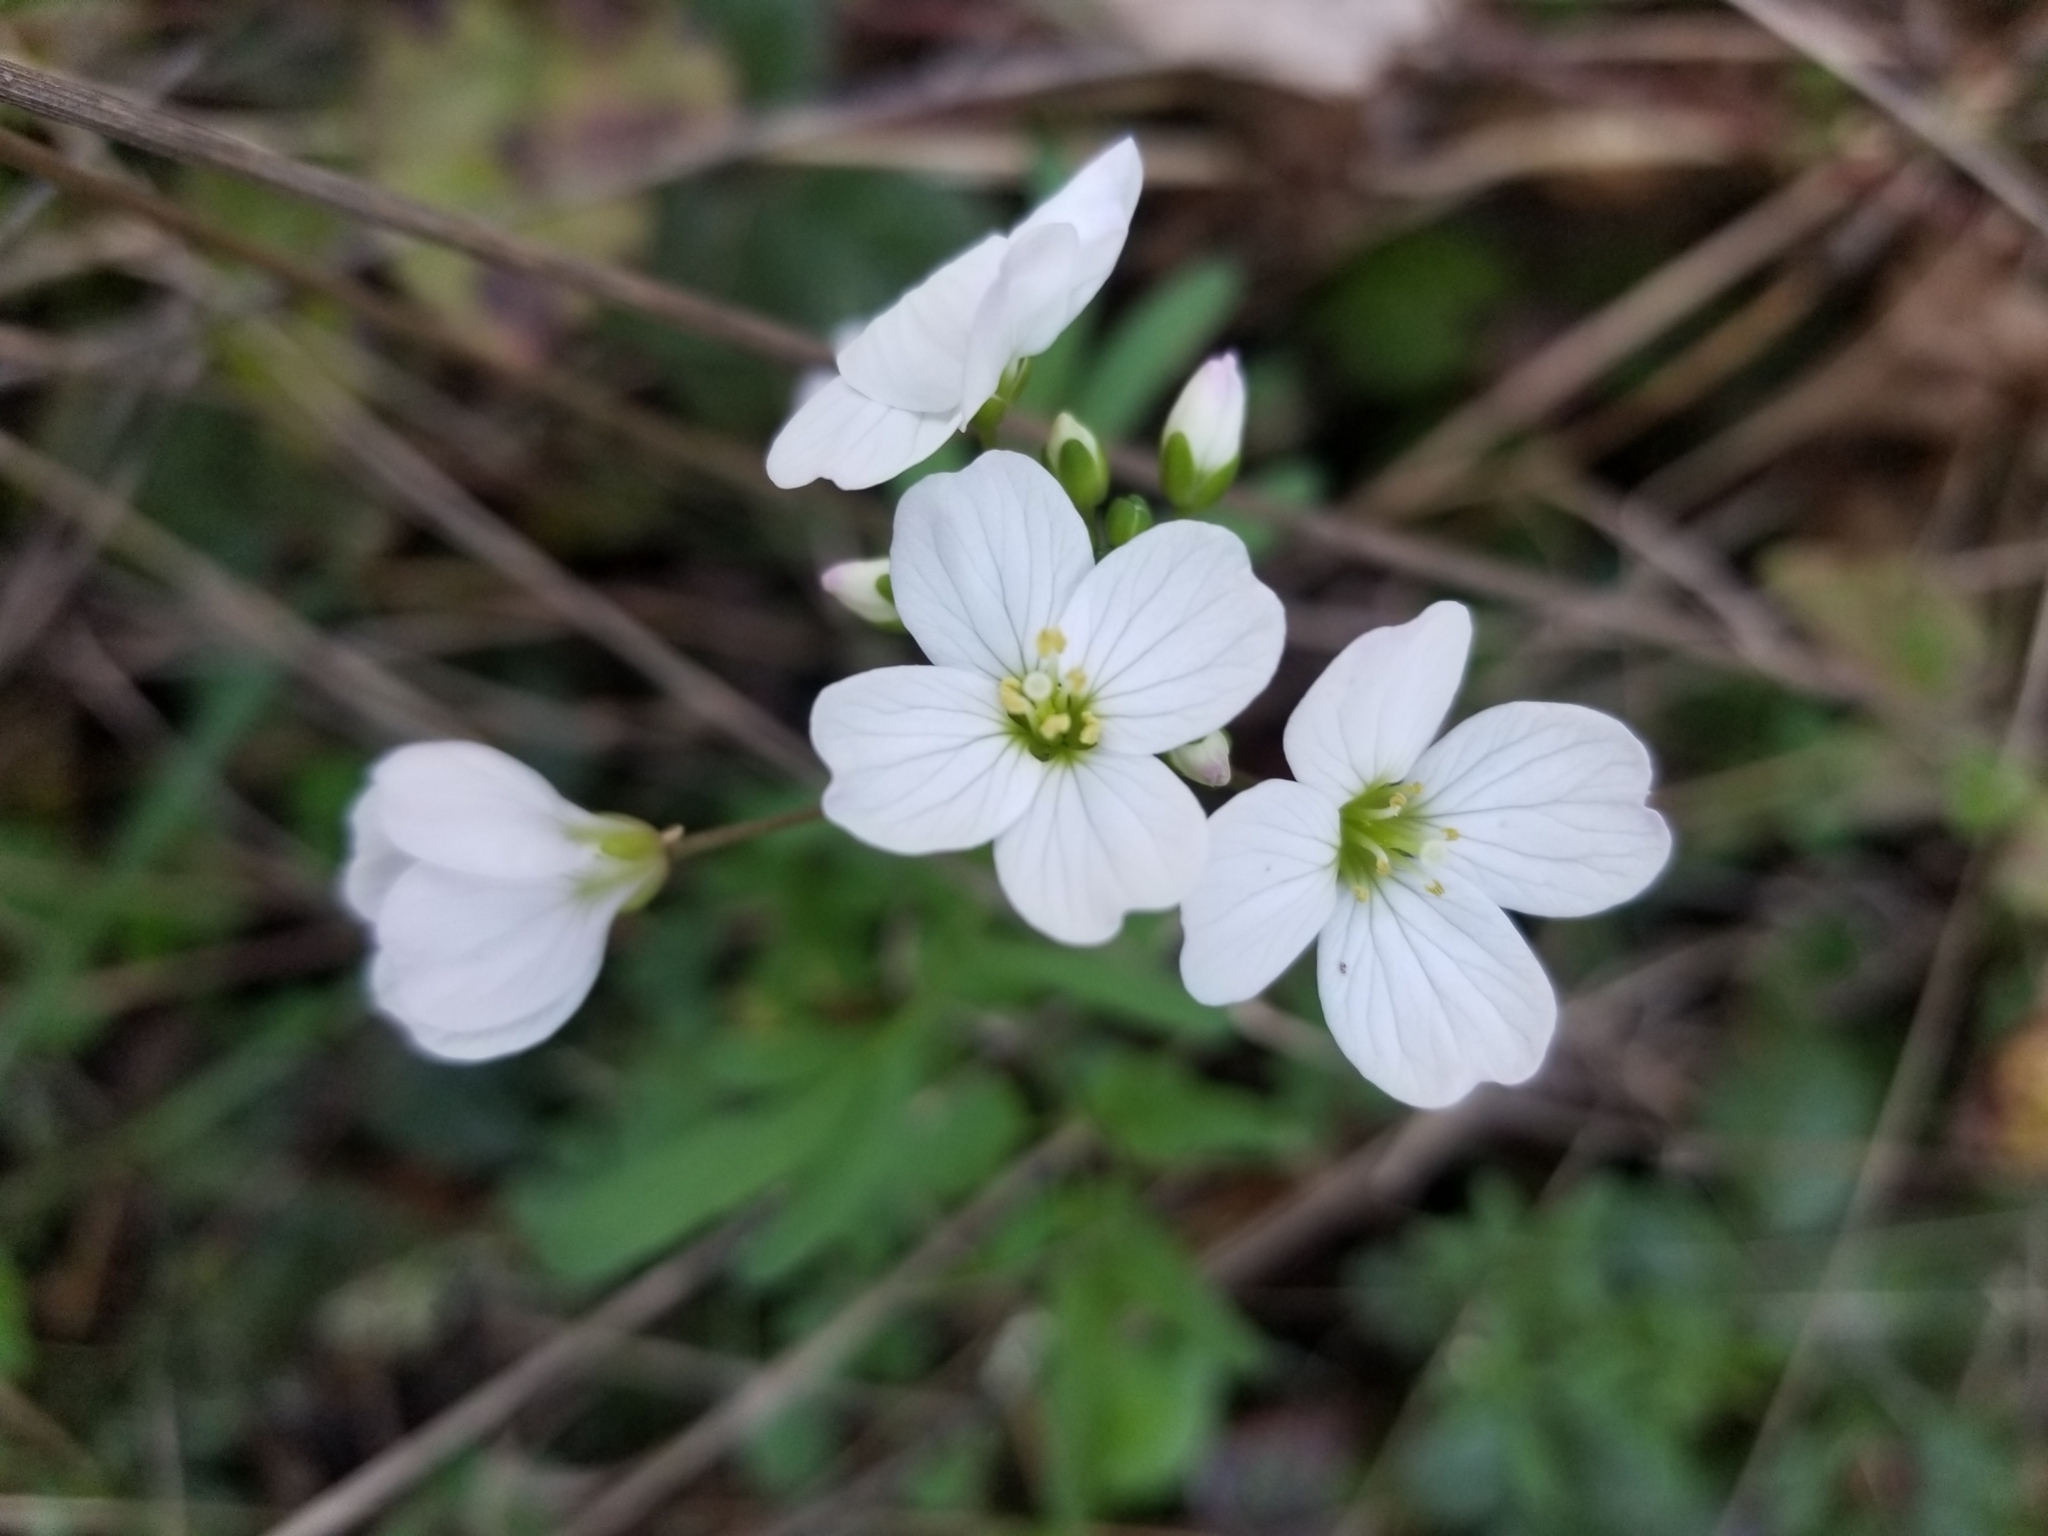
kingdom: Plantae
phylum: Tracheophyta
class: Magnoliopsida
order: Brassicales
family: Brassicaceae
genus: Cardamine
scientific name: Cardamine californica
